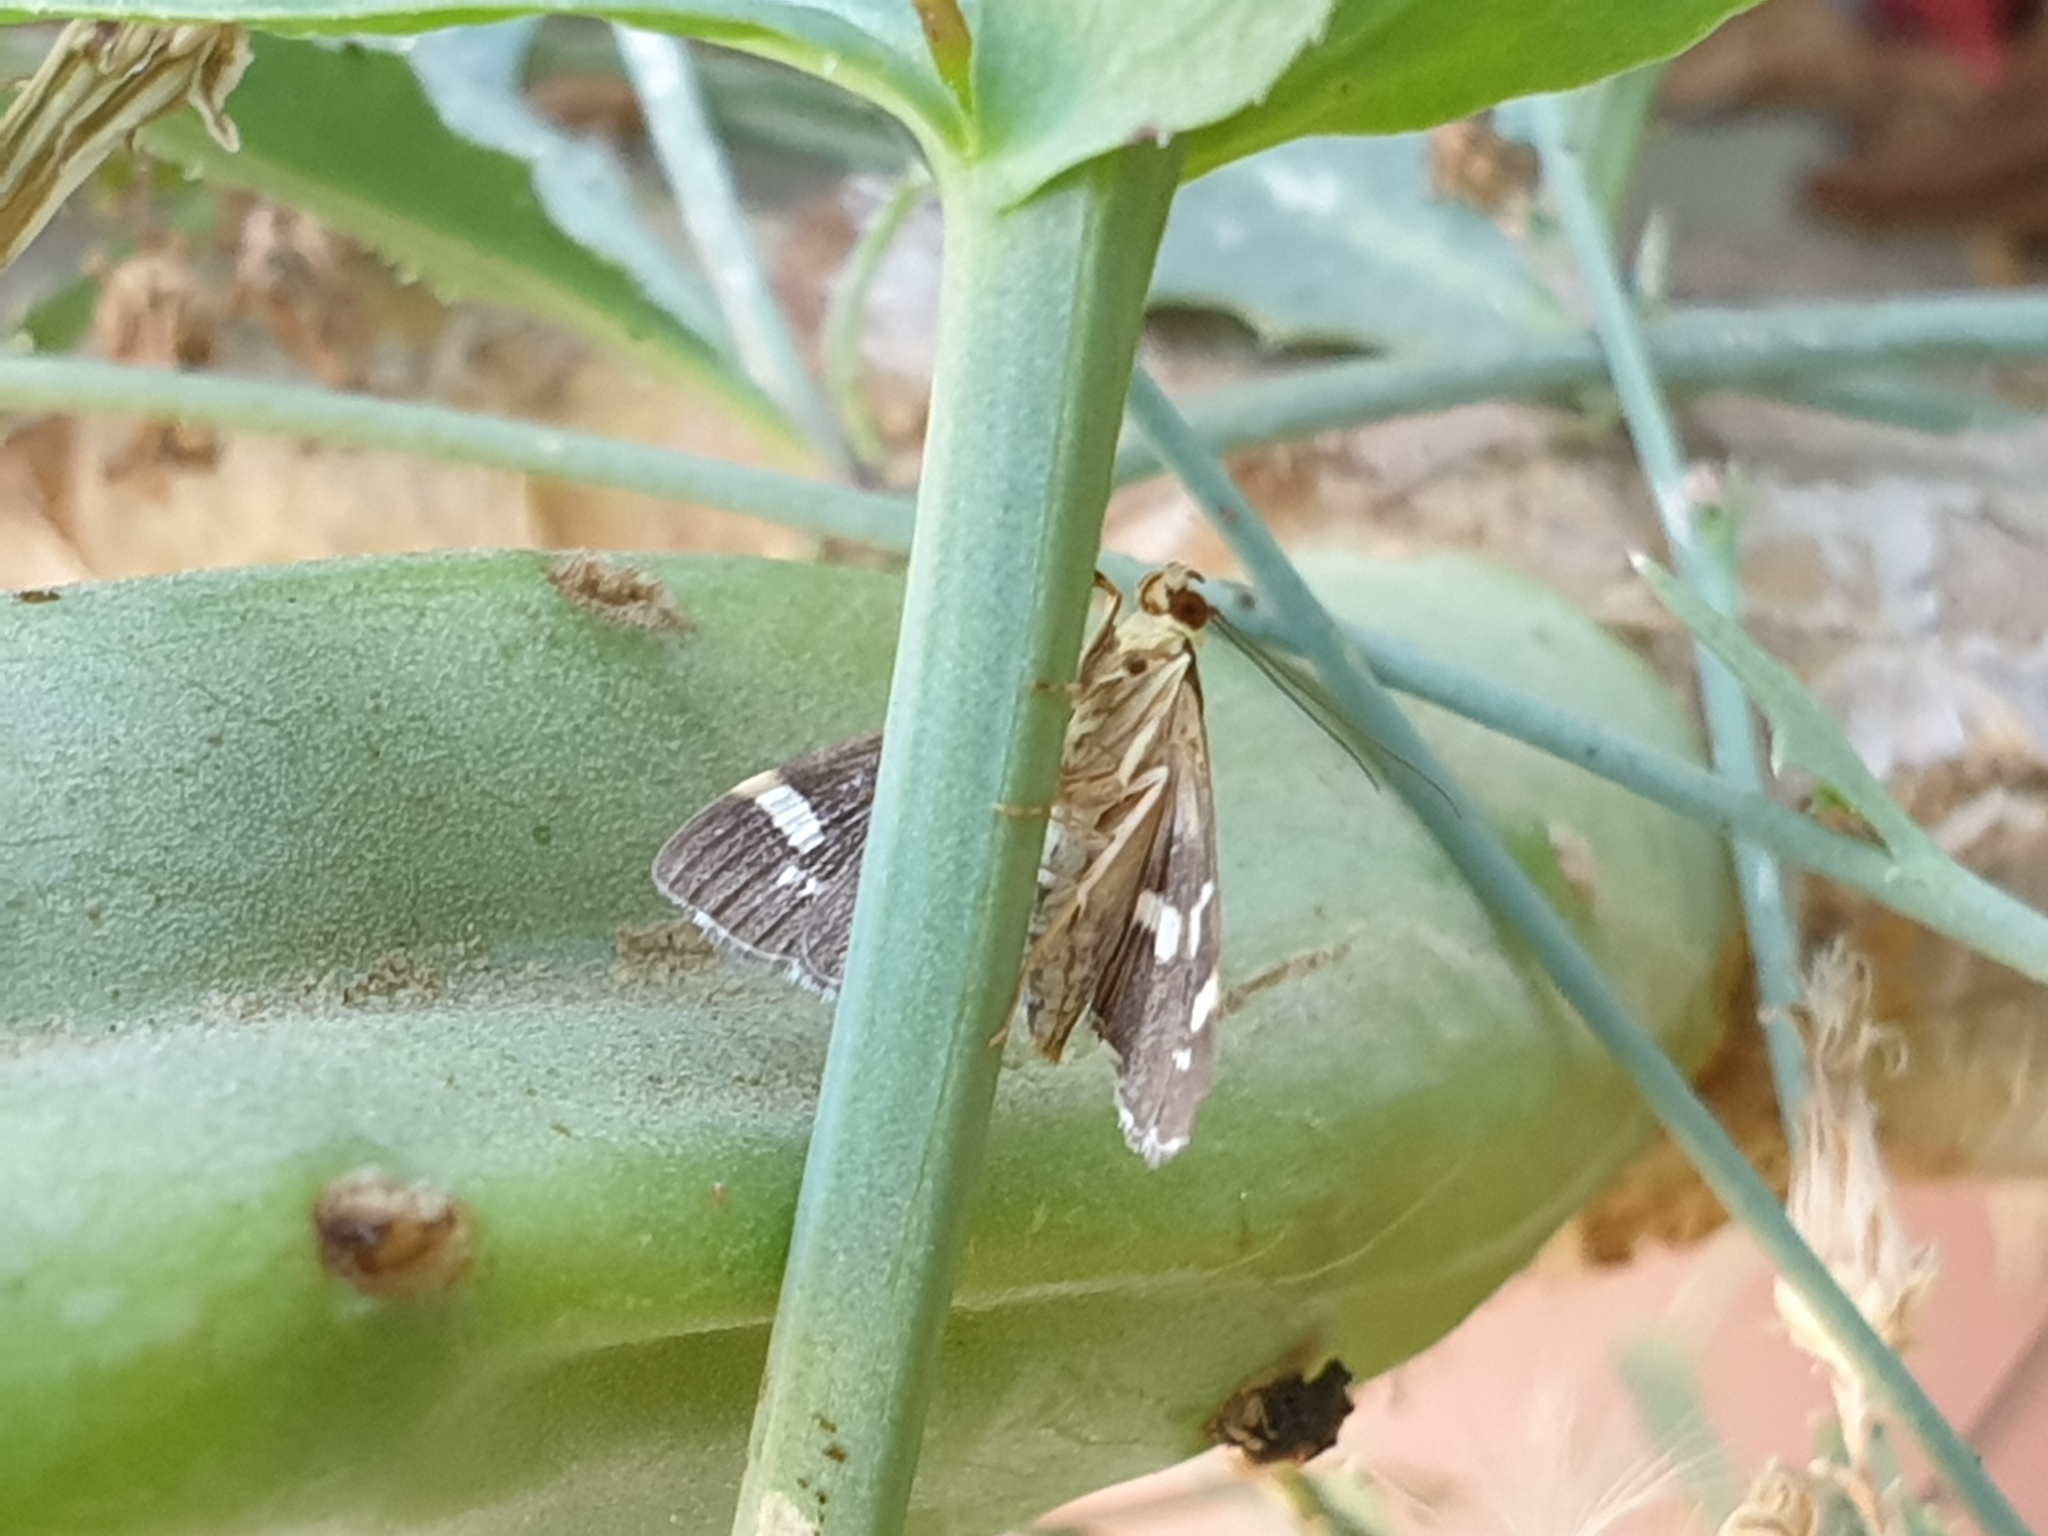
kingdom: Animalia
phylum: Arthropoda
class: Insecta
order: Lepidoptera
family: Crambidae
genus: Spoladea
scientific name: Spoladea recurvalis
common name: Beet webworm moth
